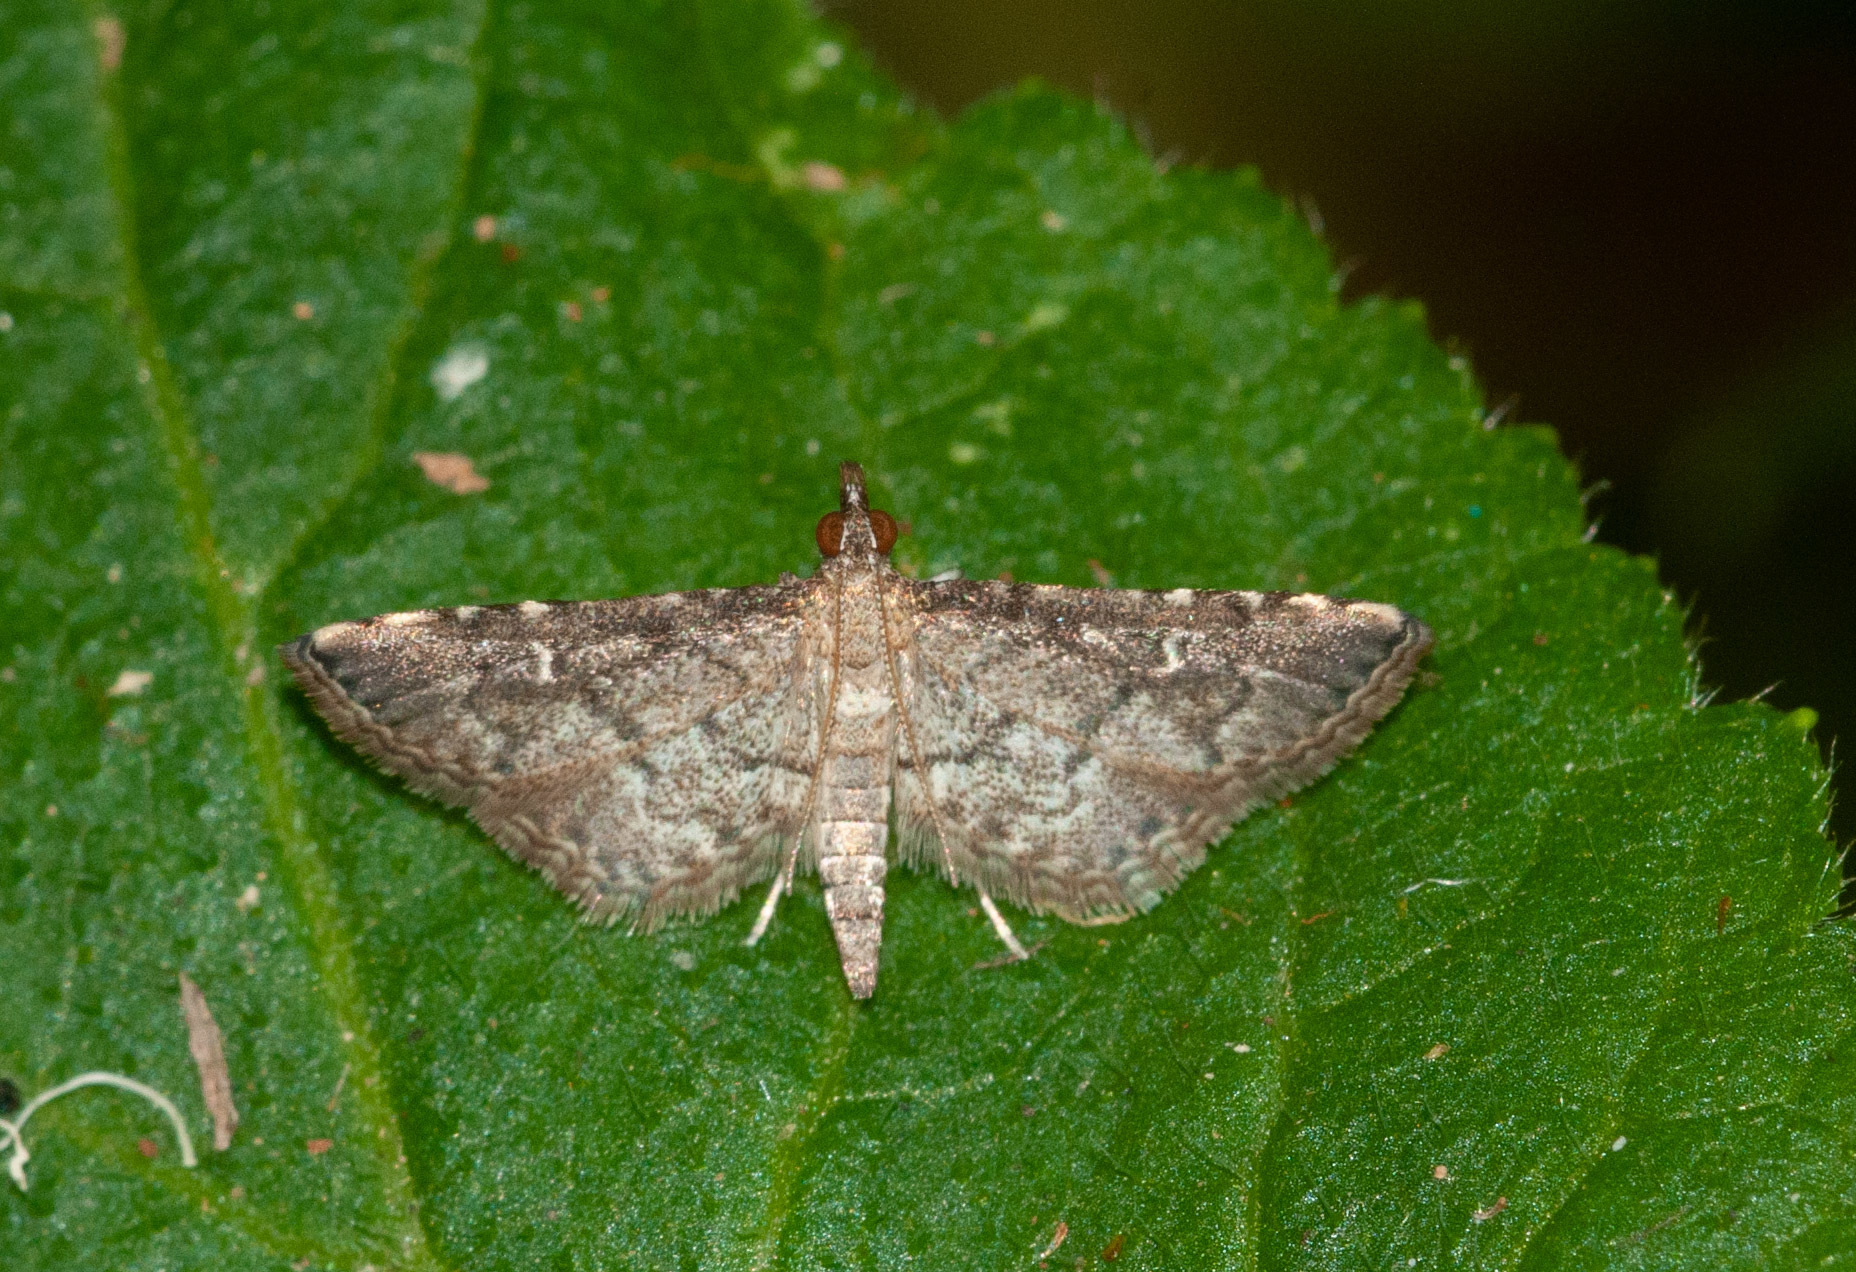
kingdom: Animalia
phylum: Arthropoda
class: Insecta
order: Lepidoptera
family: Crambidae
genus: Metasia
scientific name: Metasia capnochroa
